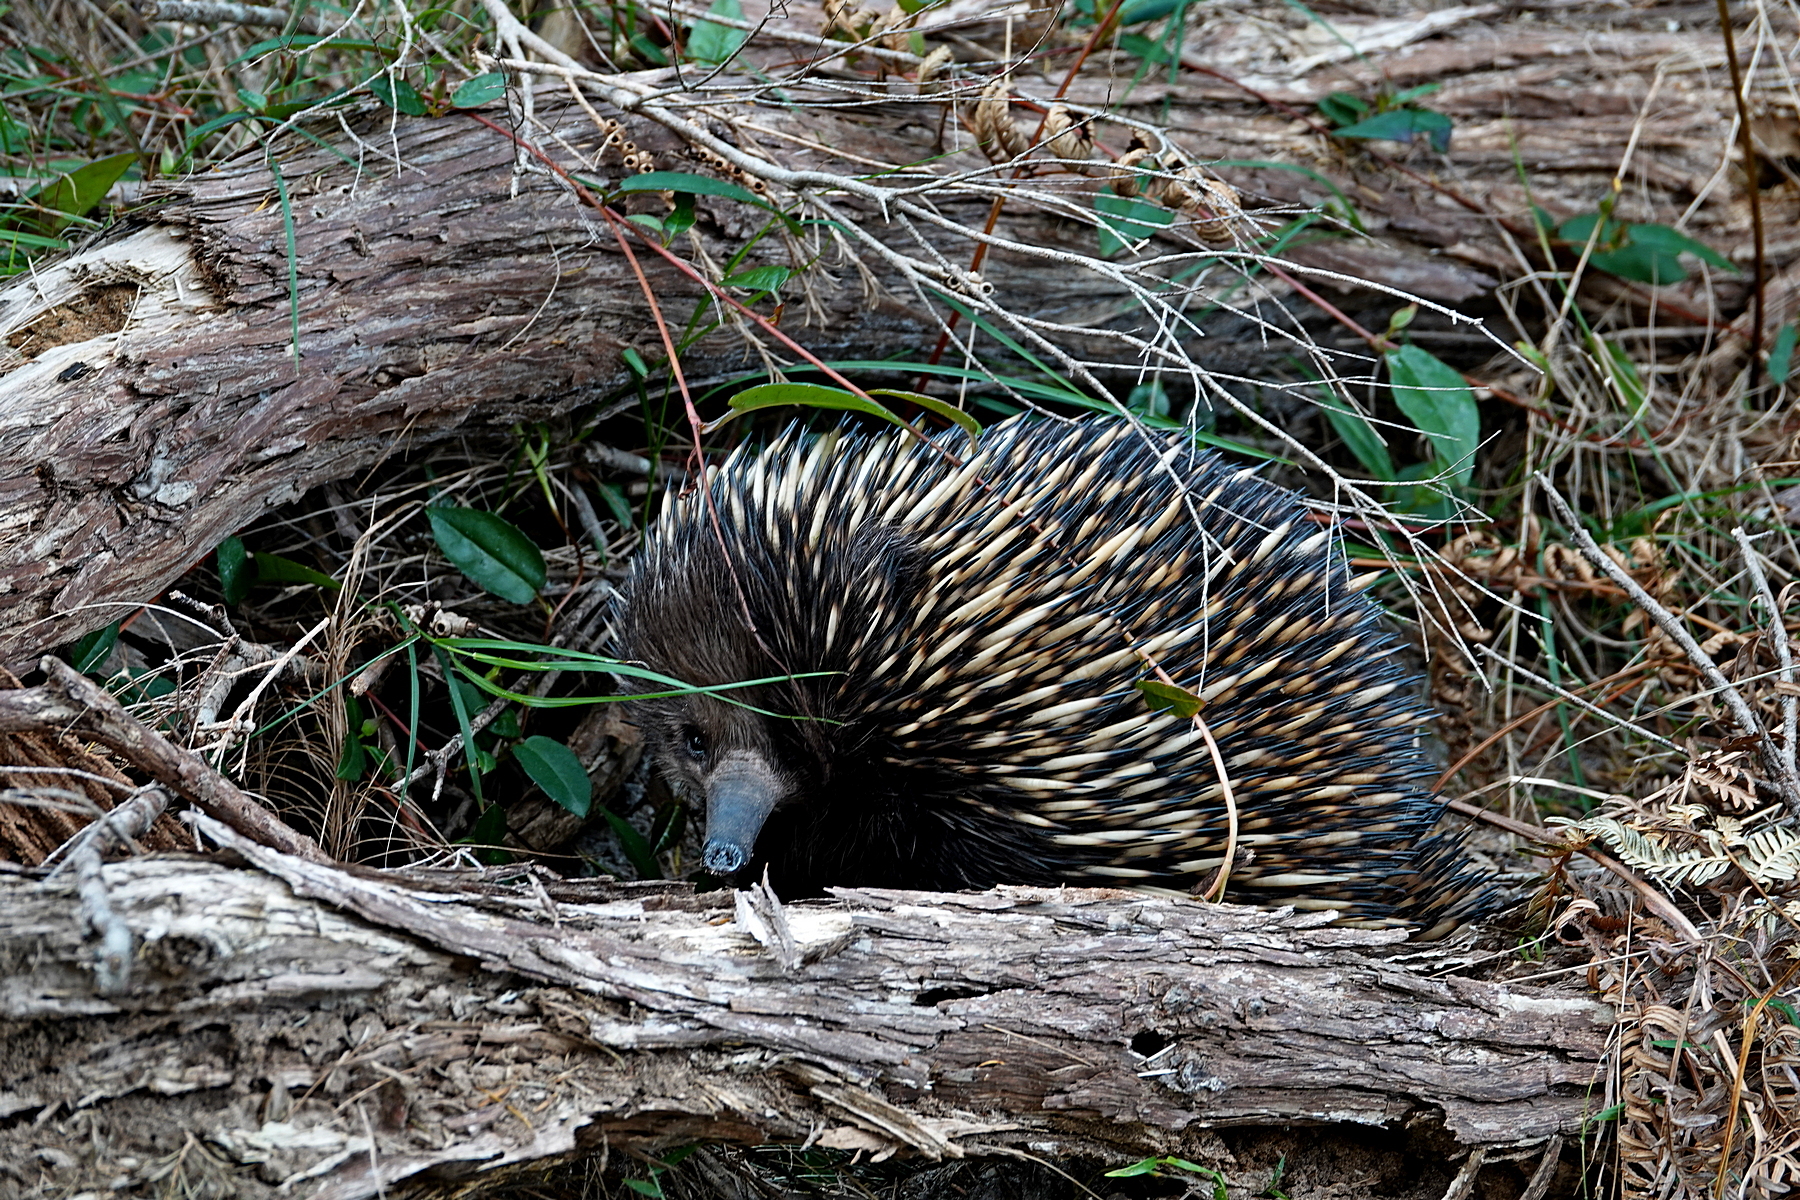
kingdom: Animalia
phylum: Chordata
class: Mammalia
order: Monotremata
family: Tachyglossidae
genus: Tachyglossus
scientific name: Tachyglossus aculeatus
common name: Short-beaked echidna
